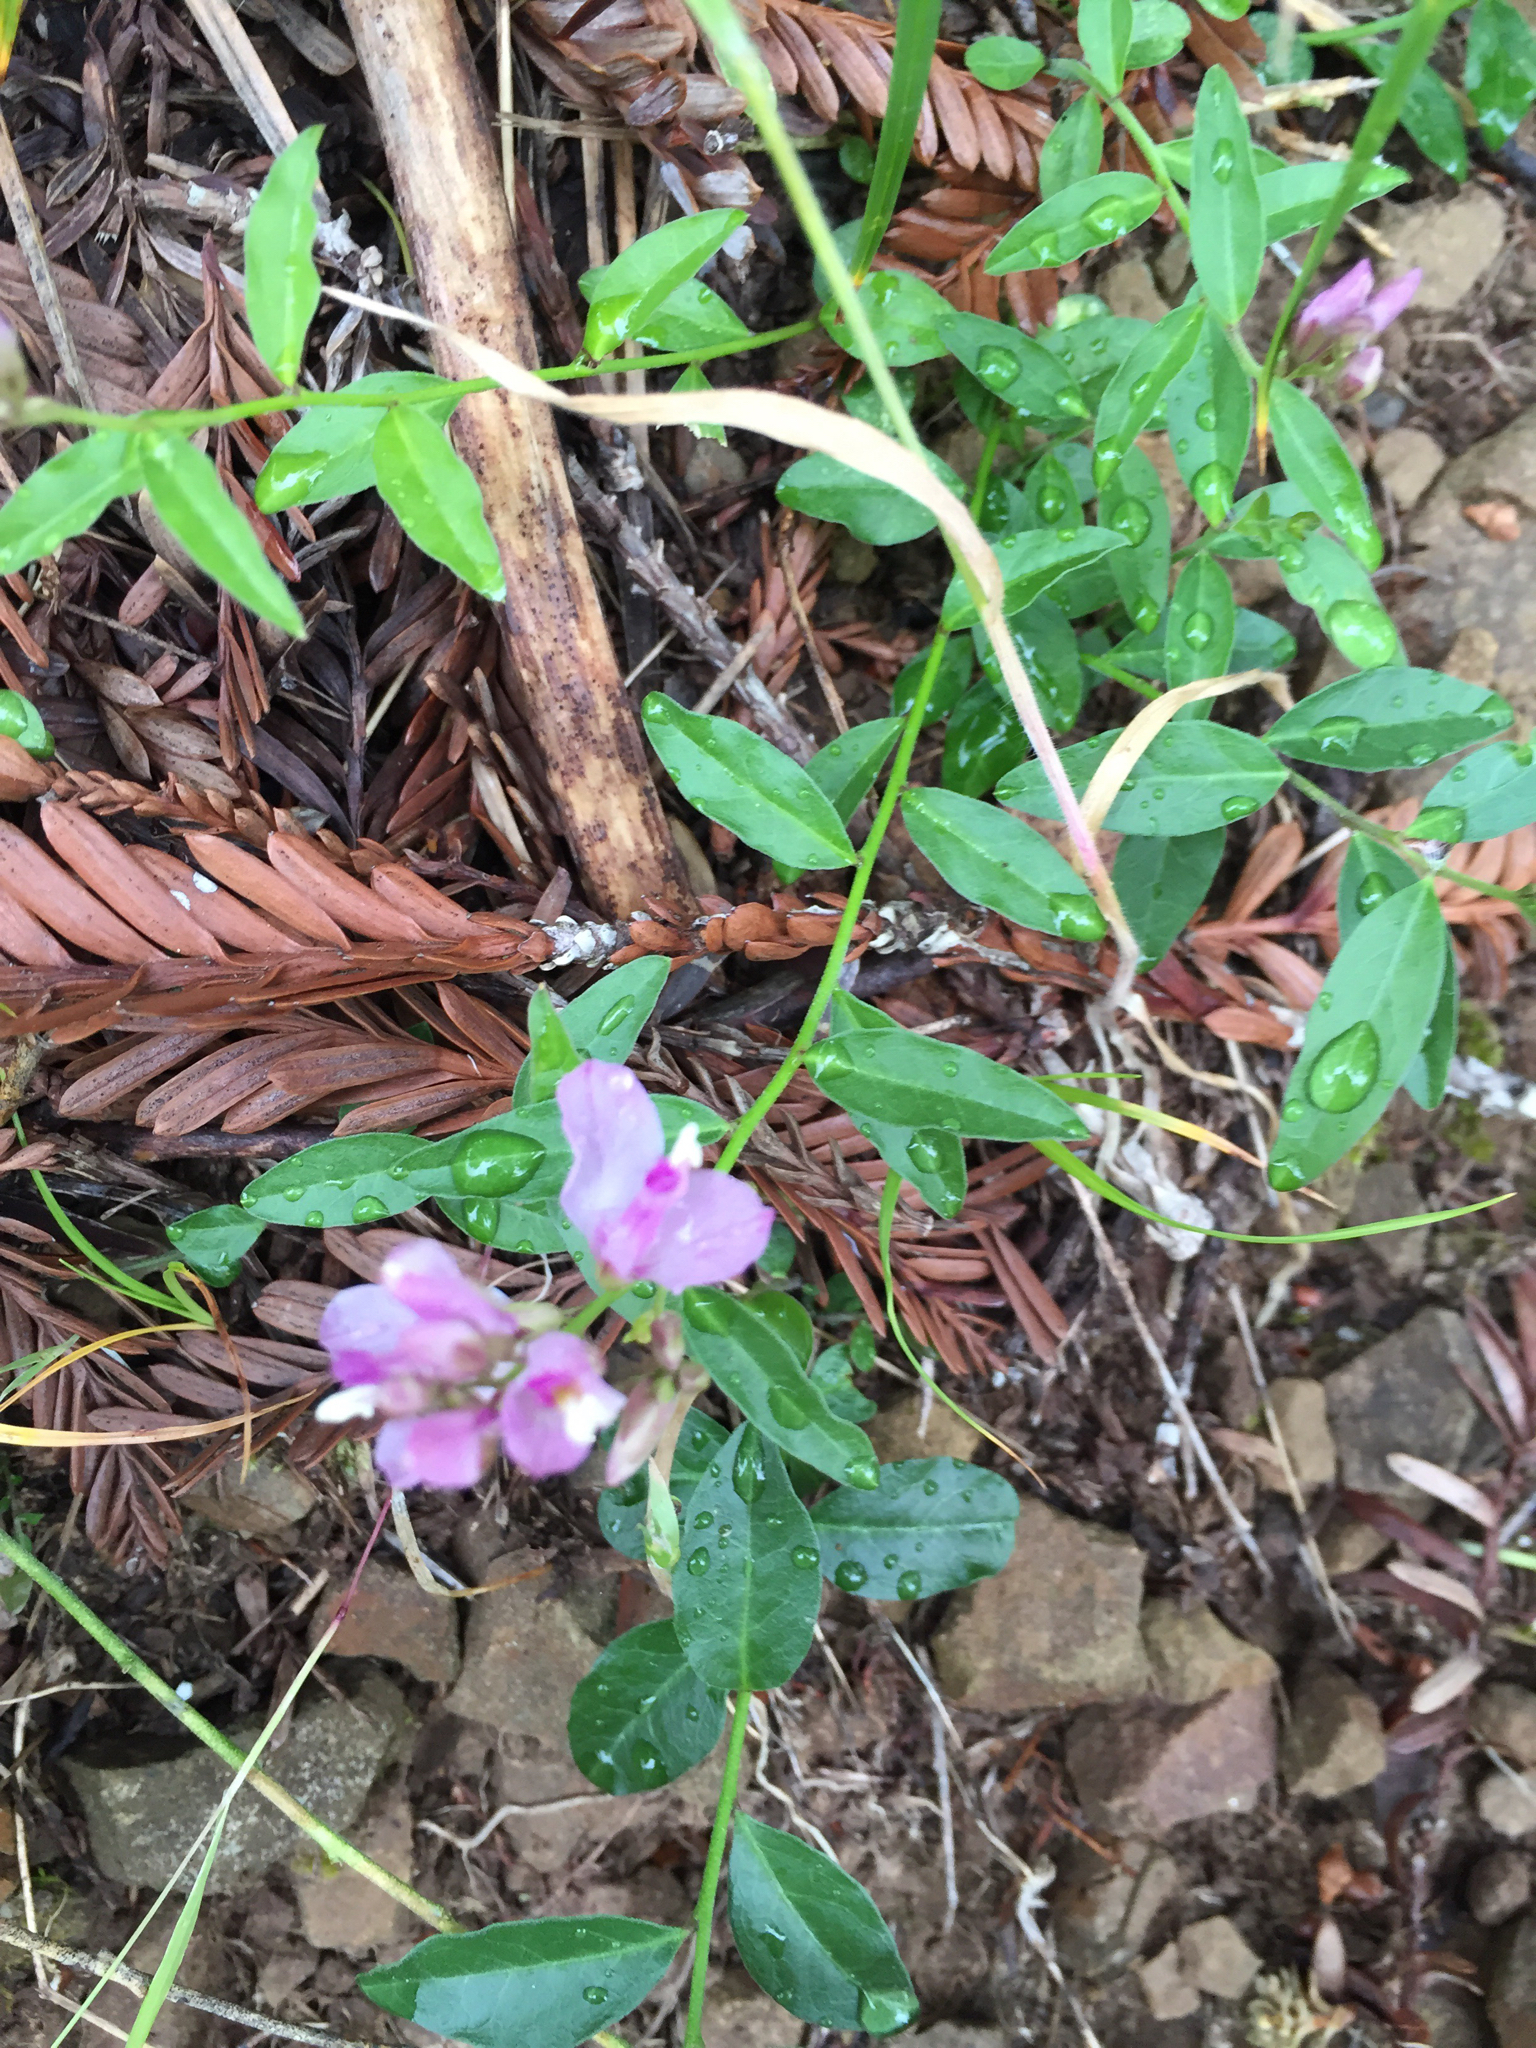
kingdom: Plantae
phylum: Tracheophyta
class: Magnoliopsida
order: Fabales
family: Polygalaceae
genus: Rhinotropis
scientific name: Rhinotropis californica
